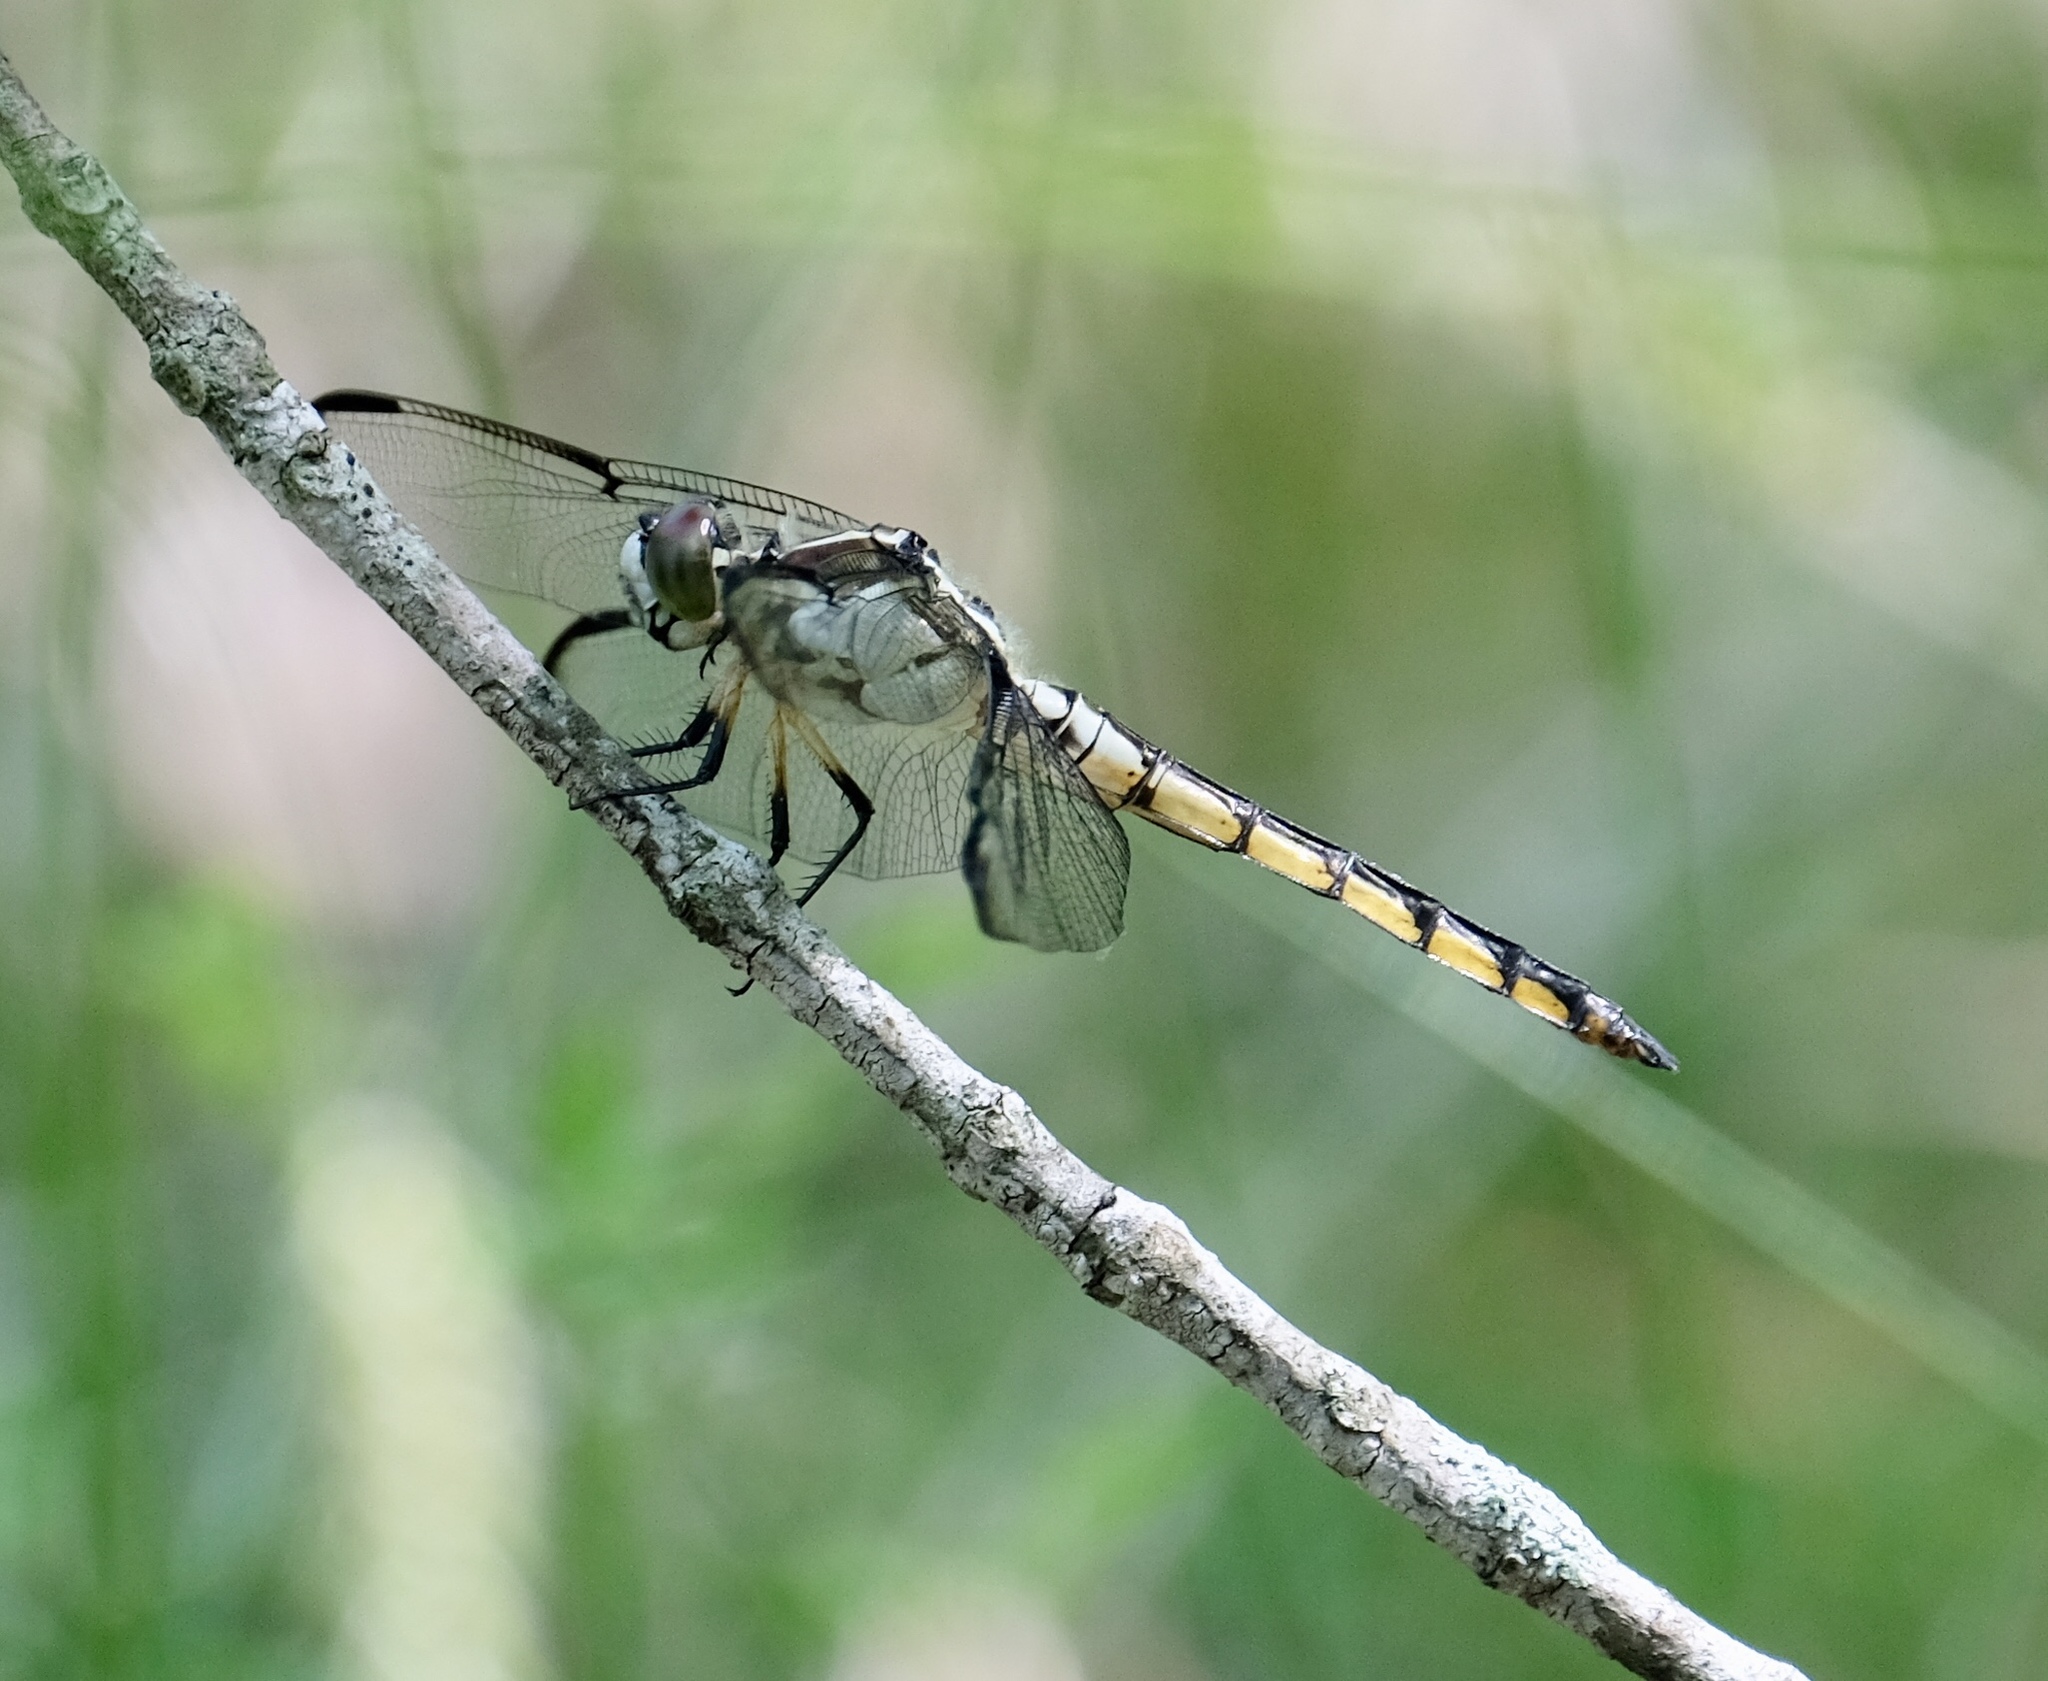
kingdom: Animalia
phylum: Arthropoda
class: Insecta
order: Odonata
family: Libellulidae
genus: Libellula
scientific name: Libellula vibrans
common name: Great blue skimmer
